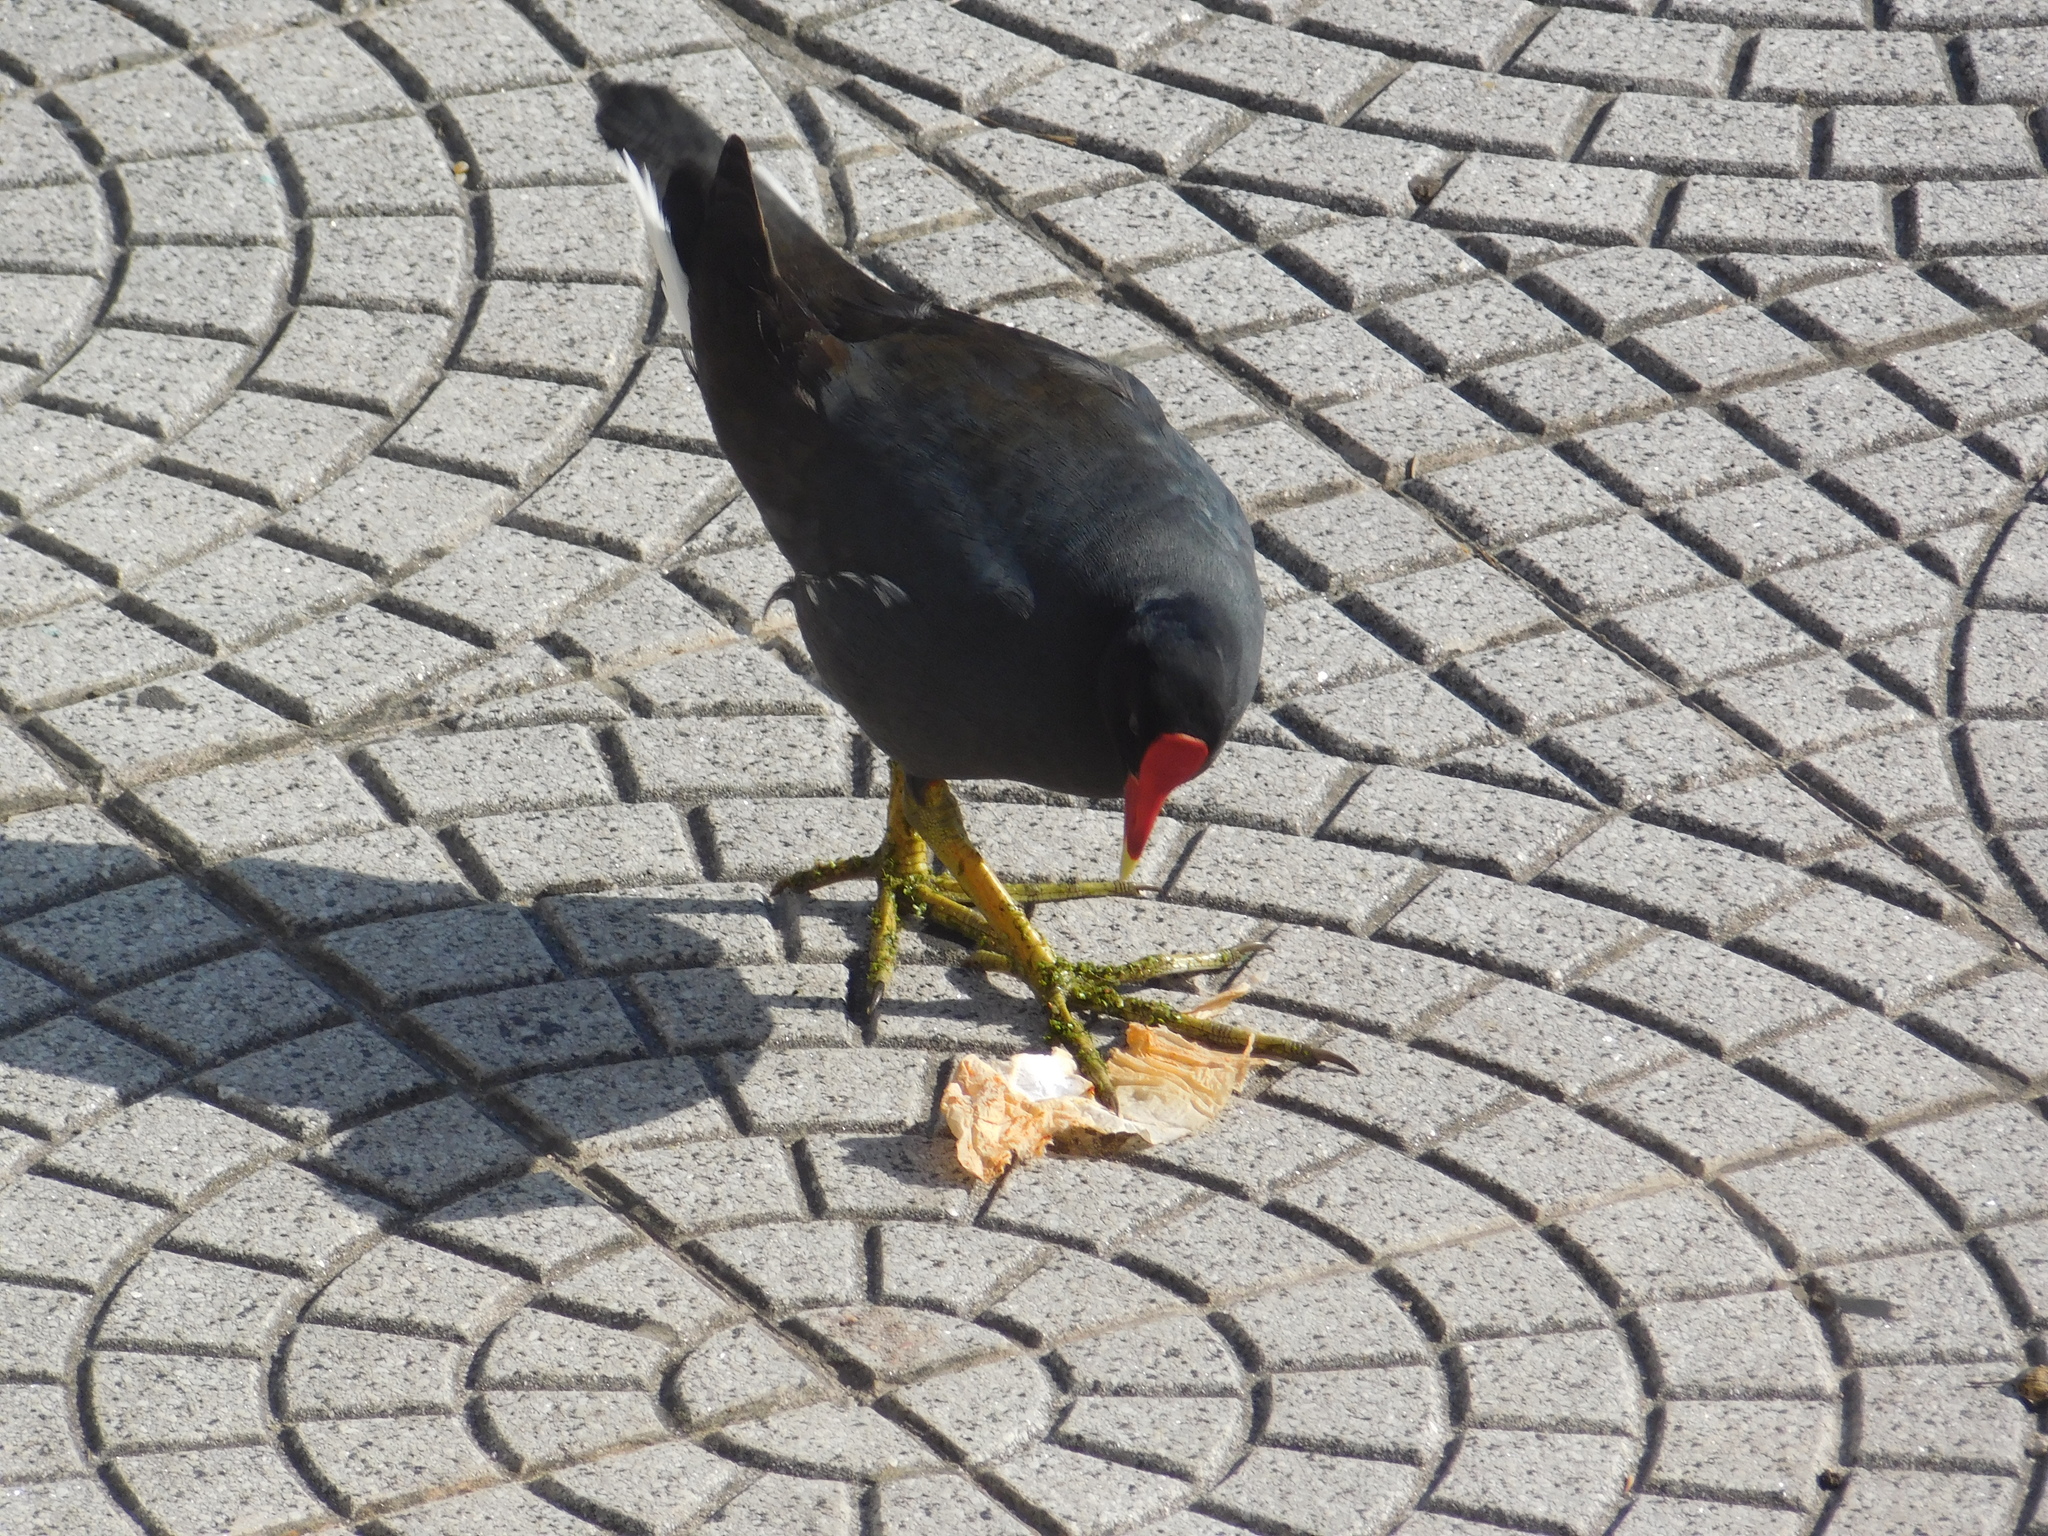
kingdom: Animalia
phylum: Chordata
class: Aves
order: Gruiformes
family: Rallidae
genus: Gallinula
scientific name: Gallinula chloropus
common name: Common moorhen
